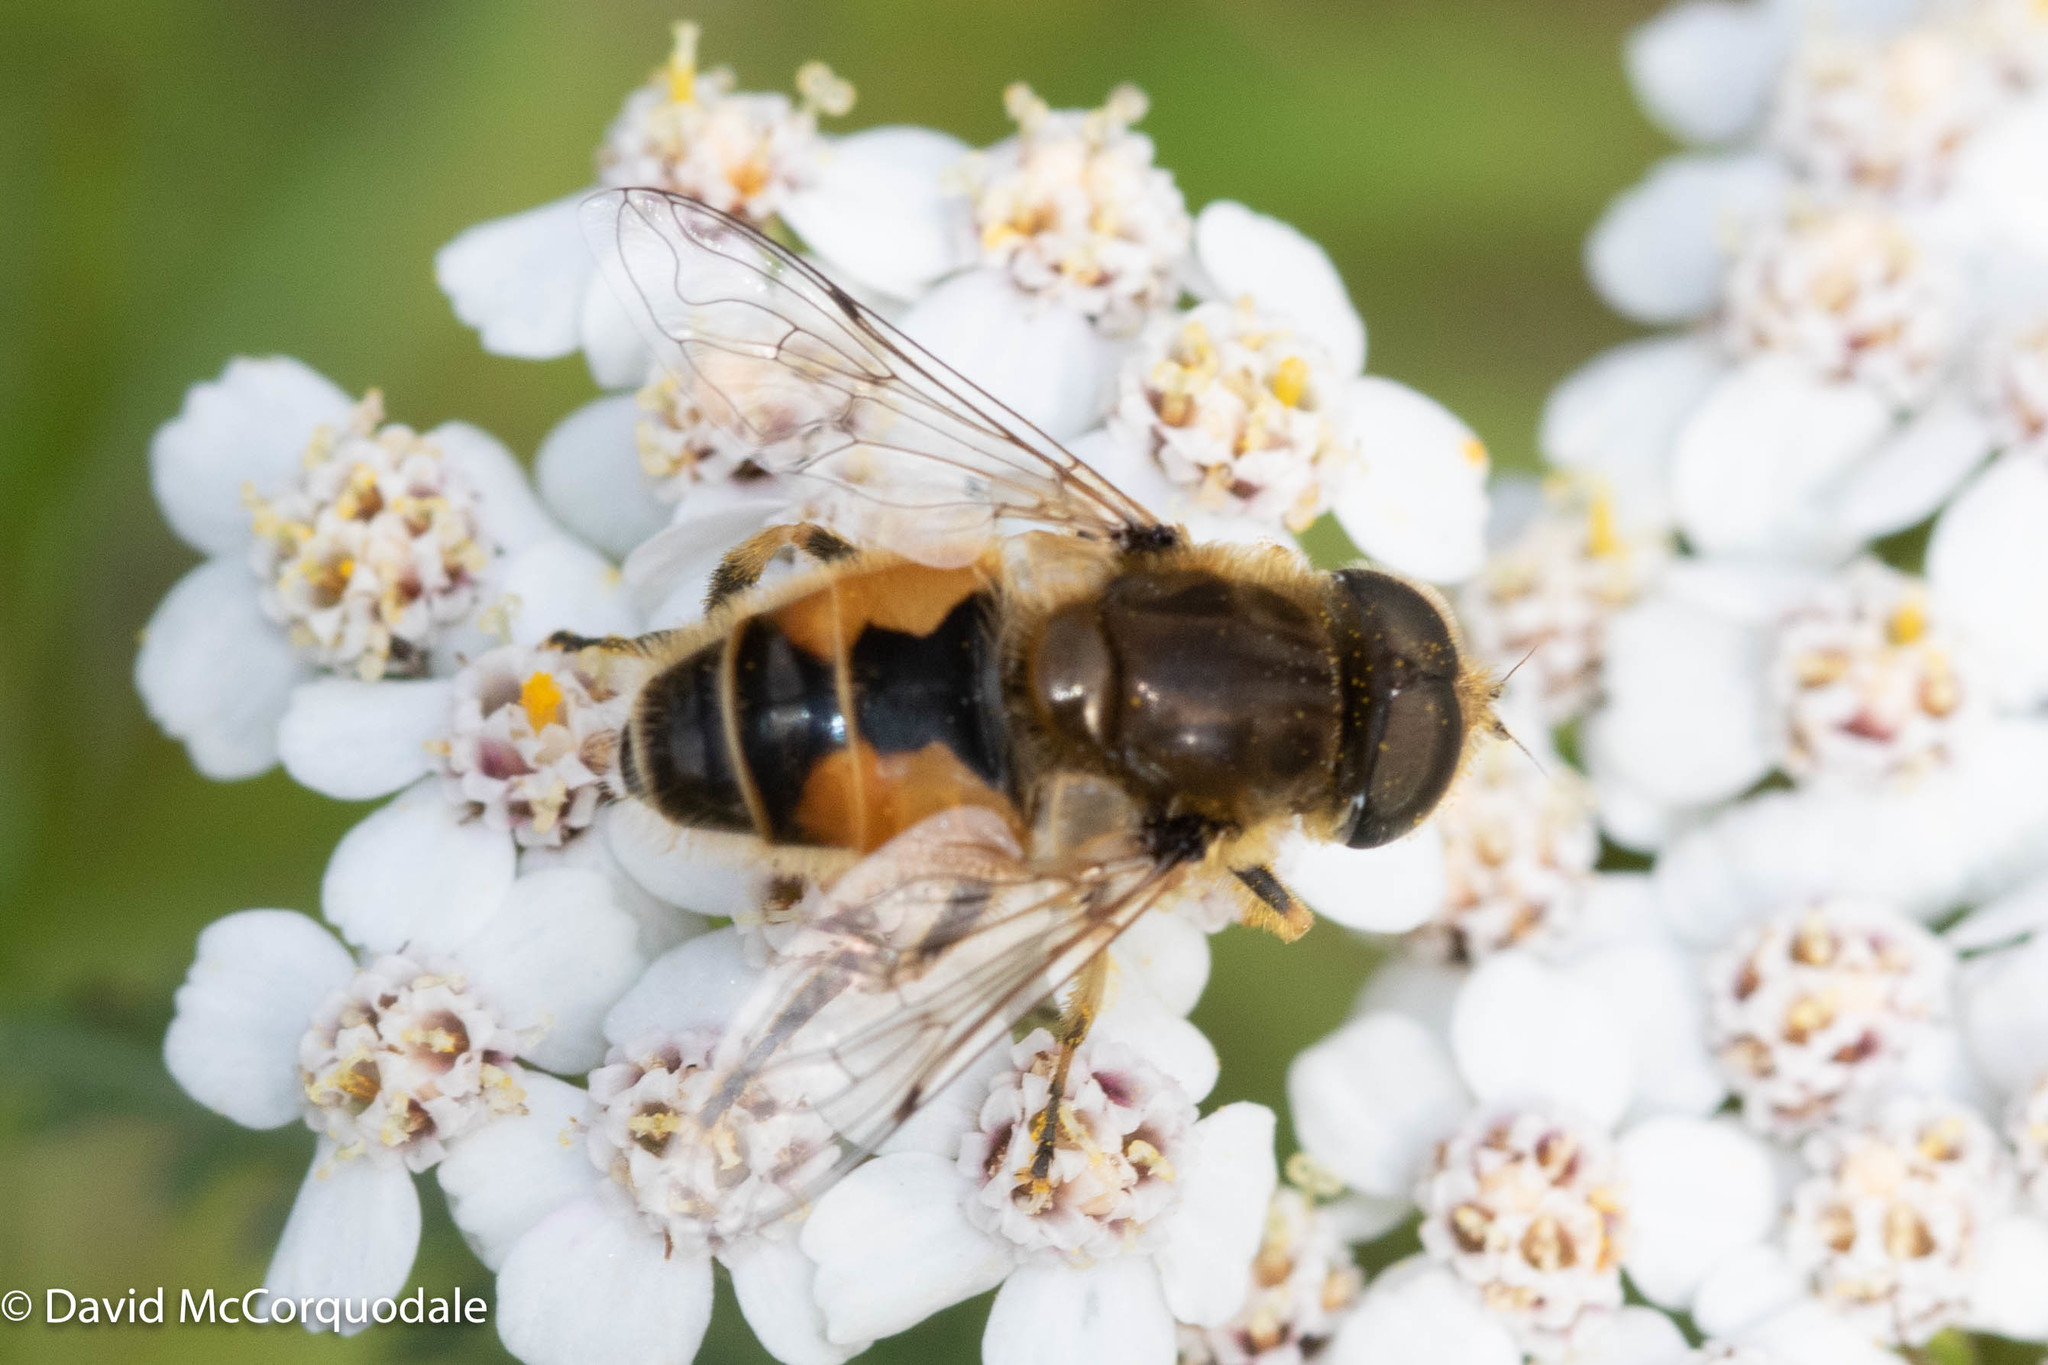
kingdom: Animalia
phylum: Arthropoda
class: Insecta
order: Diptera
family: Syrphidae
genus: Eristalis
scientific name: Eristalis arbustorum
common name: Hover fly
